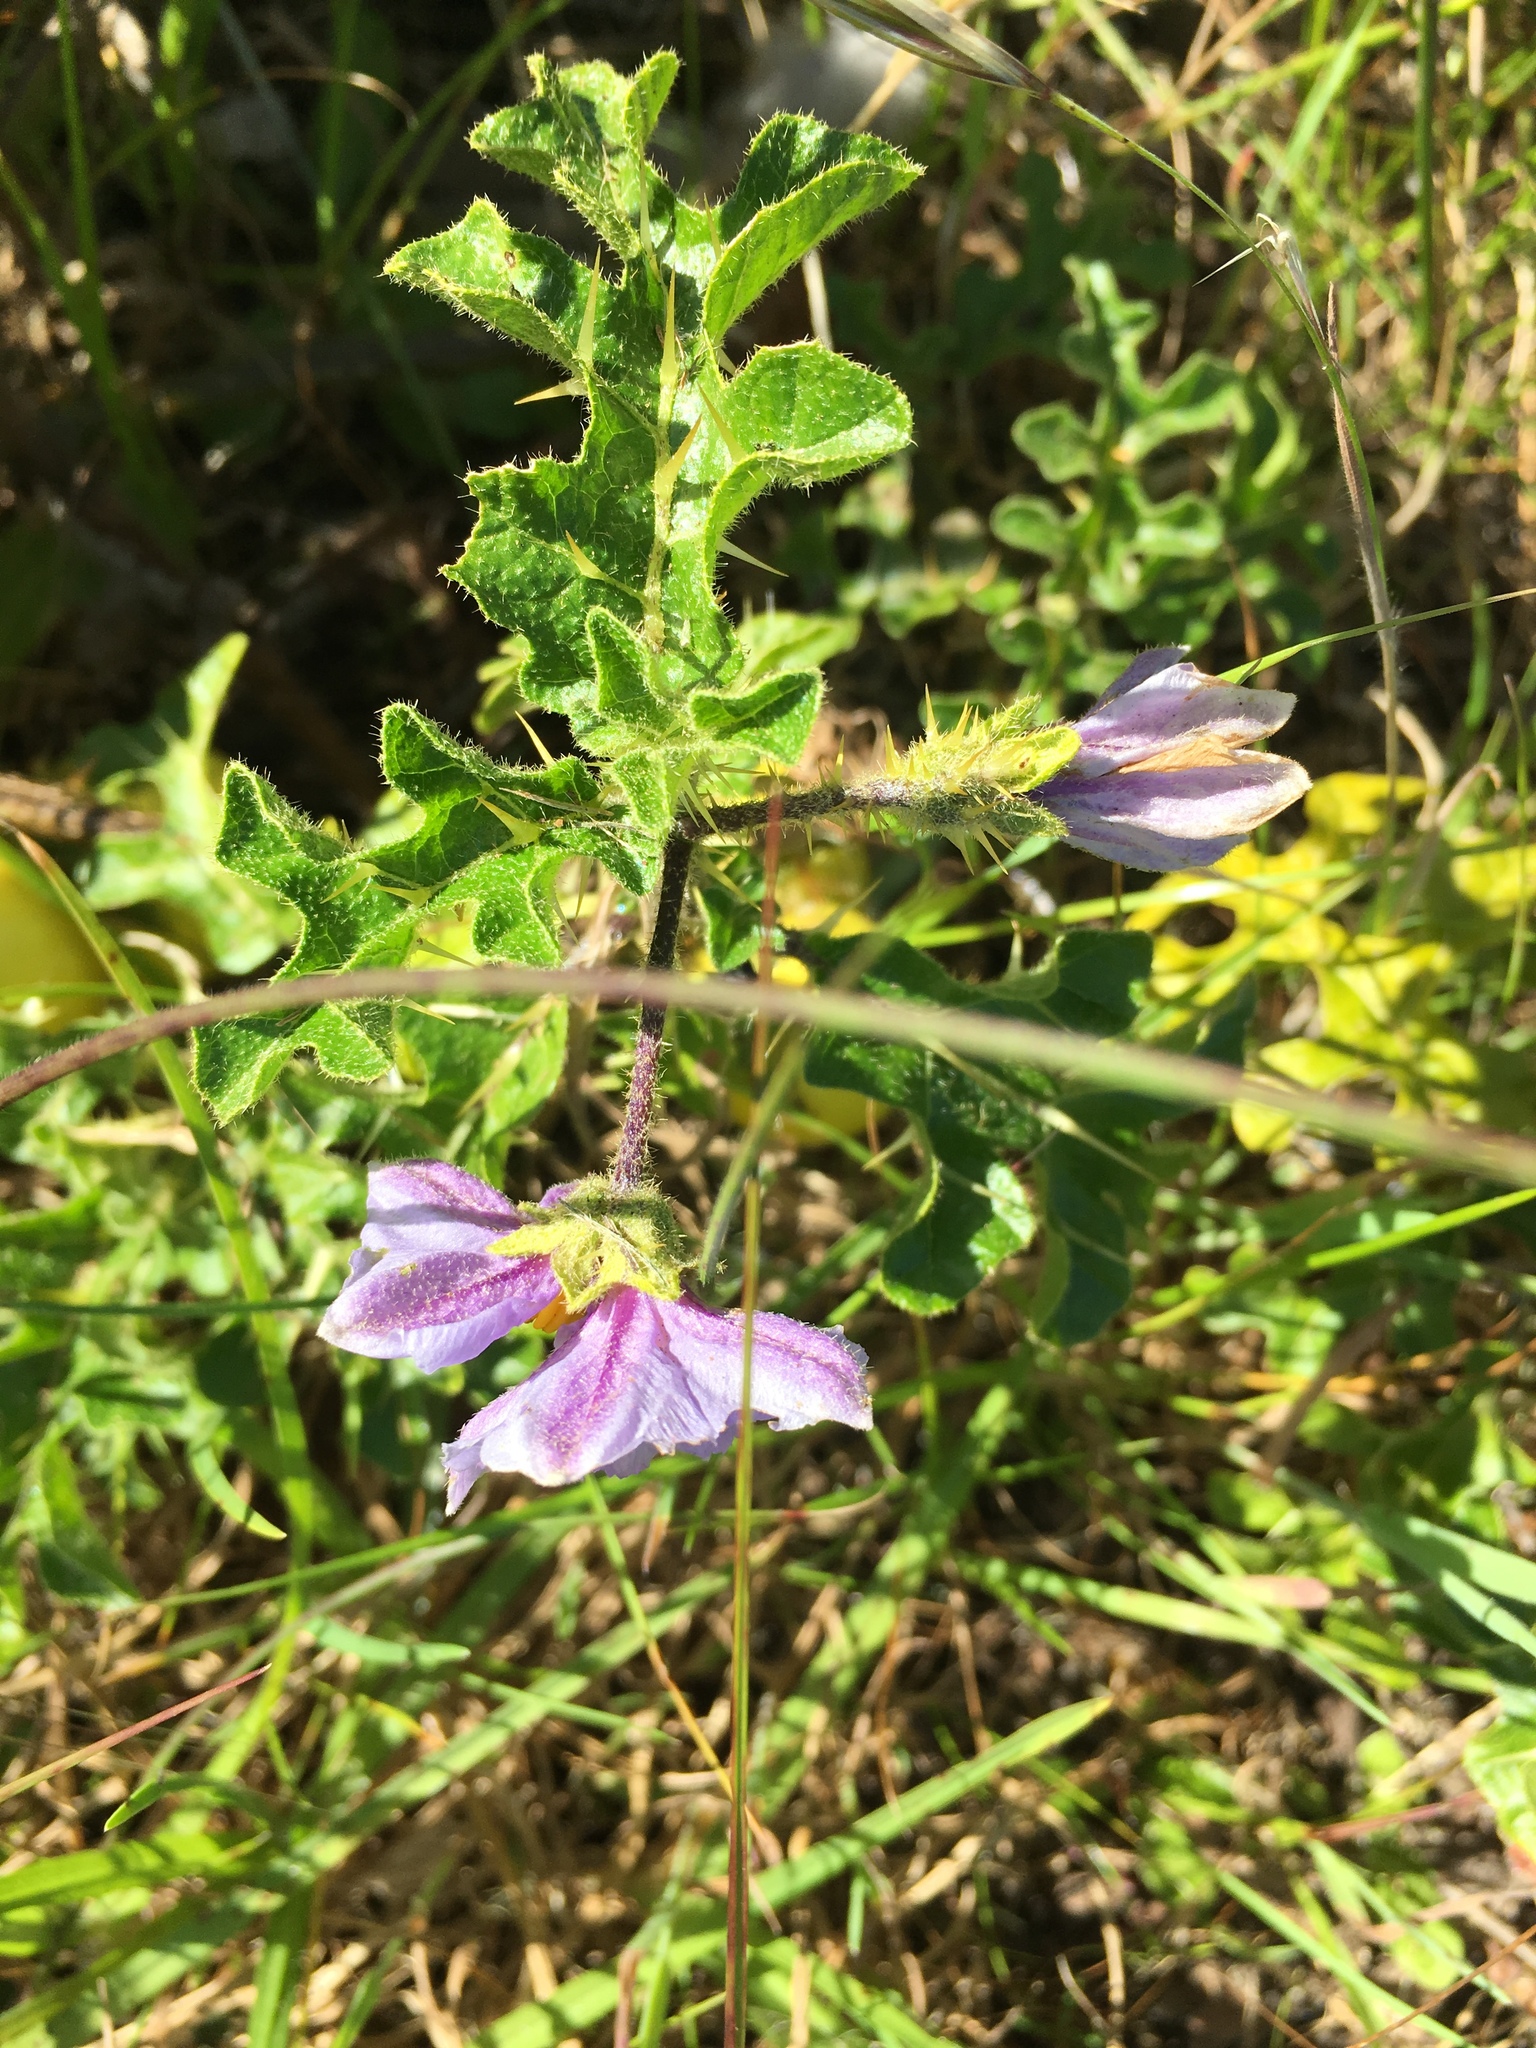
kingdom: Plantae
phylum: Tracheophyta
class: Magnoliopsida
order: Solanales
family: Solanaceae
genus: Solanum
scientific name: Solanum linnaeanum
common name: Nightshade
